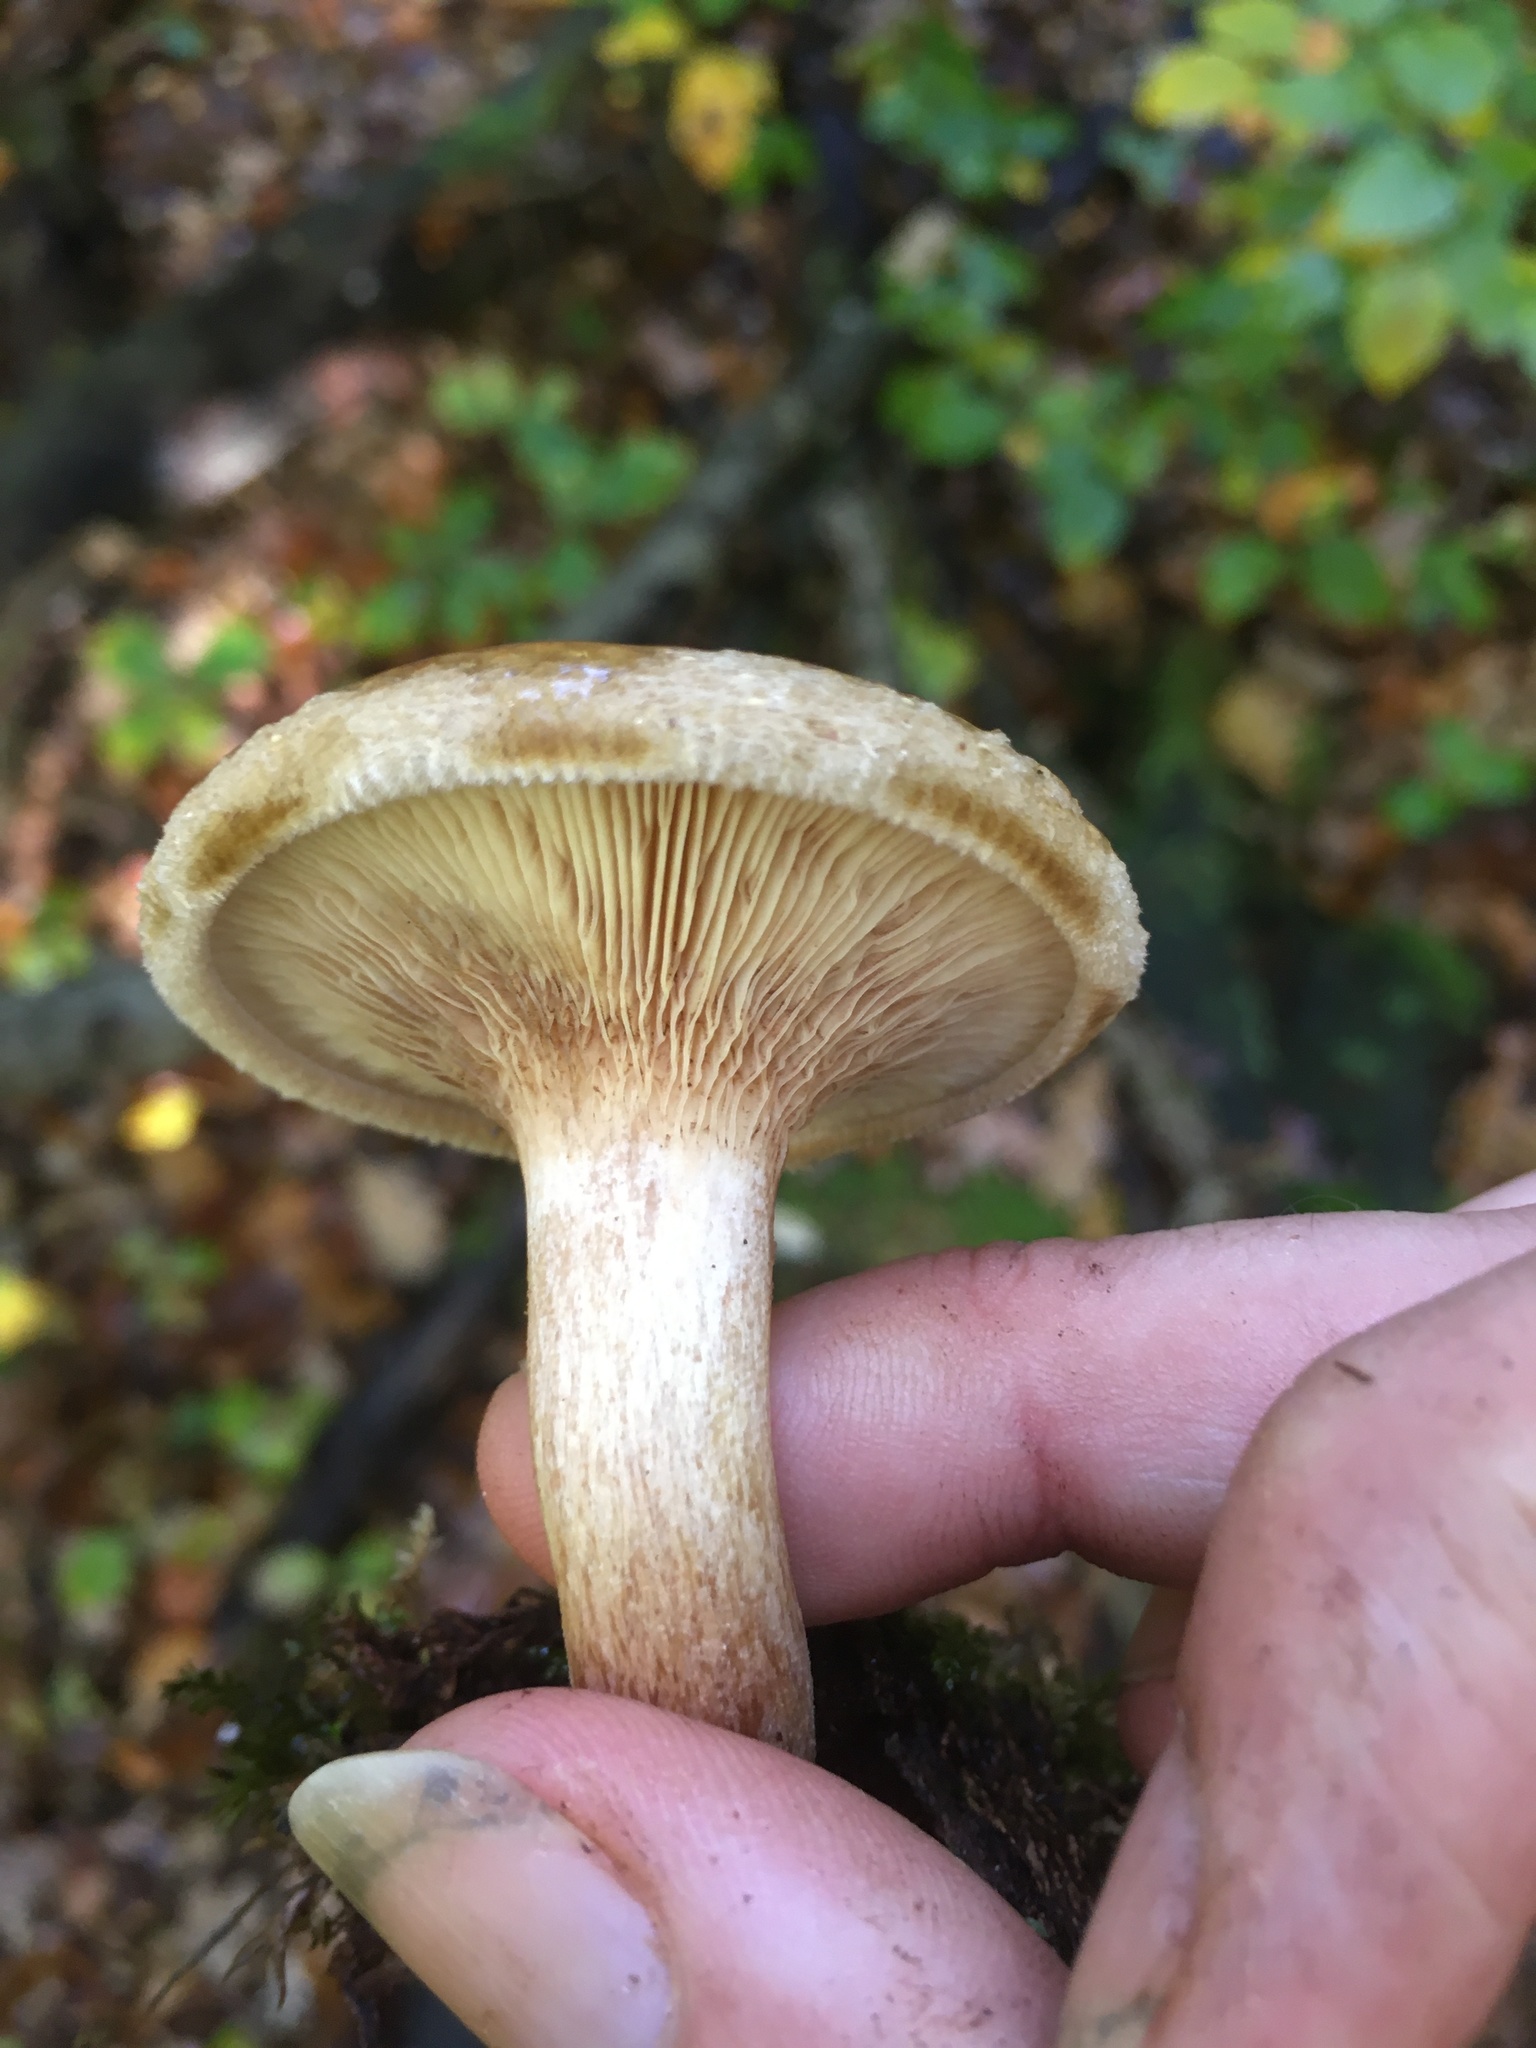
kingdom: Fungi
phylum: Basidiomycota
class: Agaricomycetes
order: Boletales
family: Paxillaceae
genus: Paxillus
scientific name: Paxillus involutus
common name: Brown roll rim
